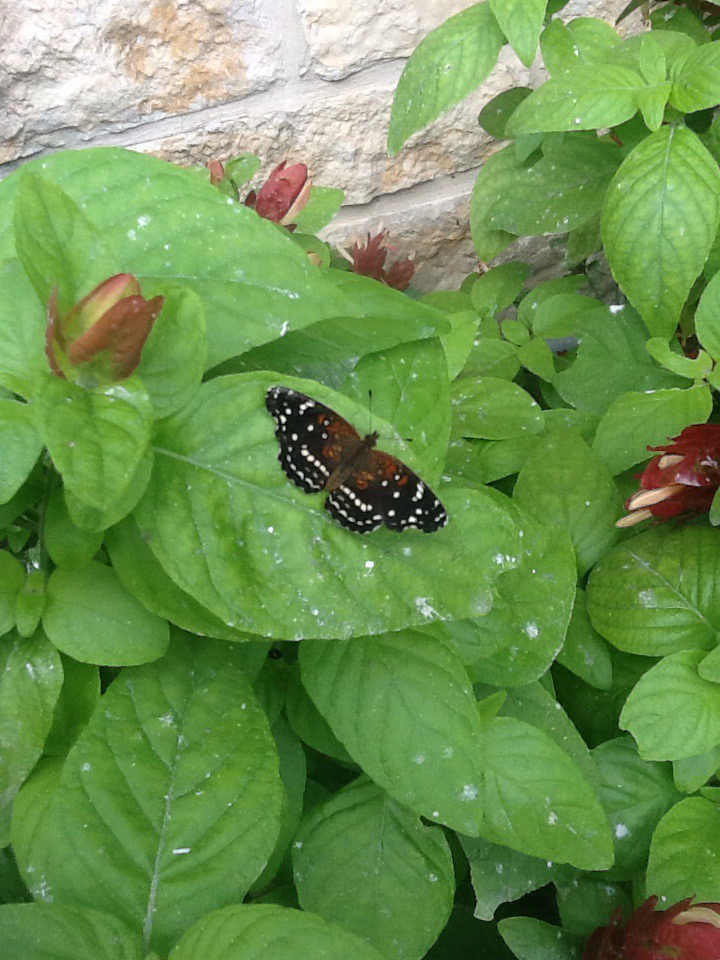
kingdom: Animalia
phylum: Arthropoda
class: Insecta
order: Lepidoptera
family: Nymphalidae
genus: Anthanassa
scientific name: Anthanassa texana
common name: Texan crescent
